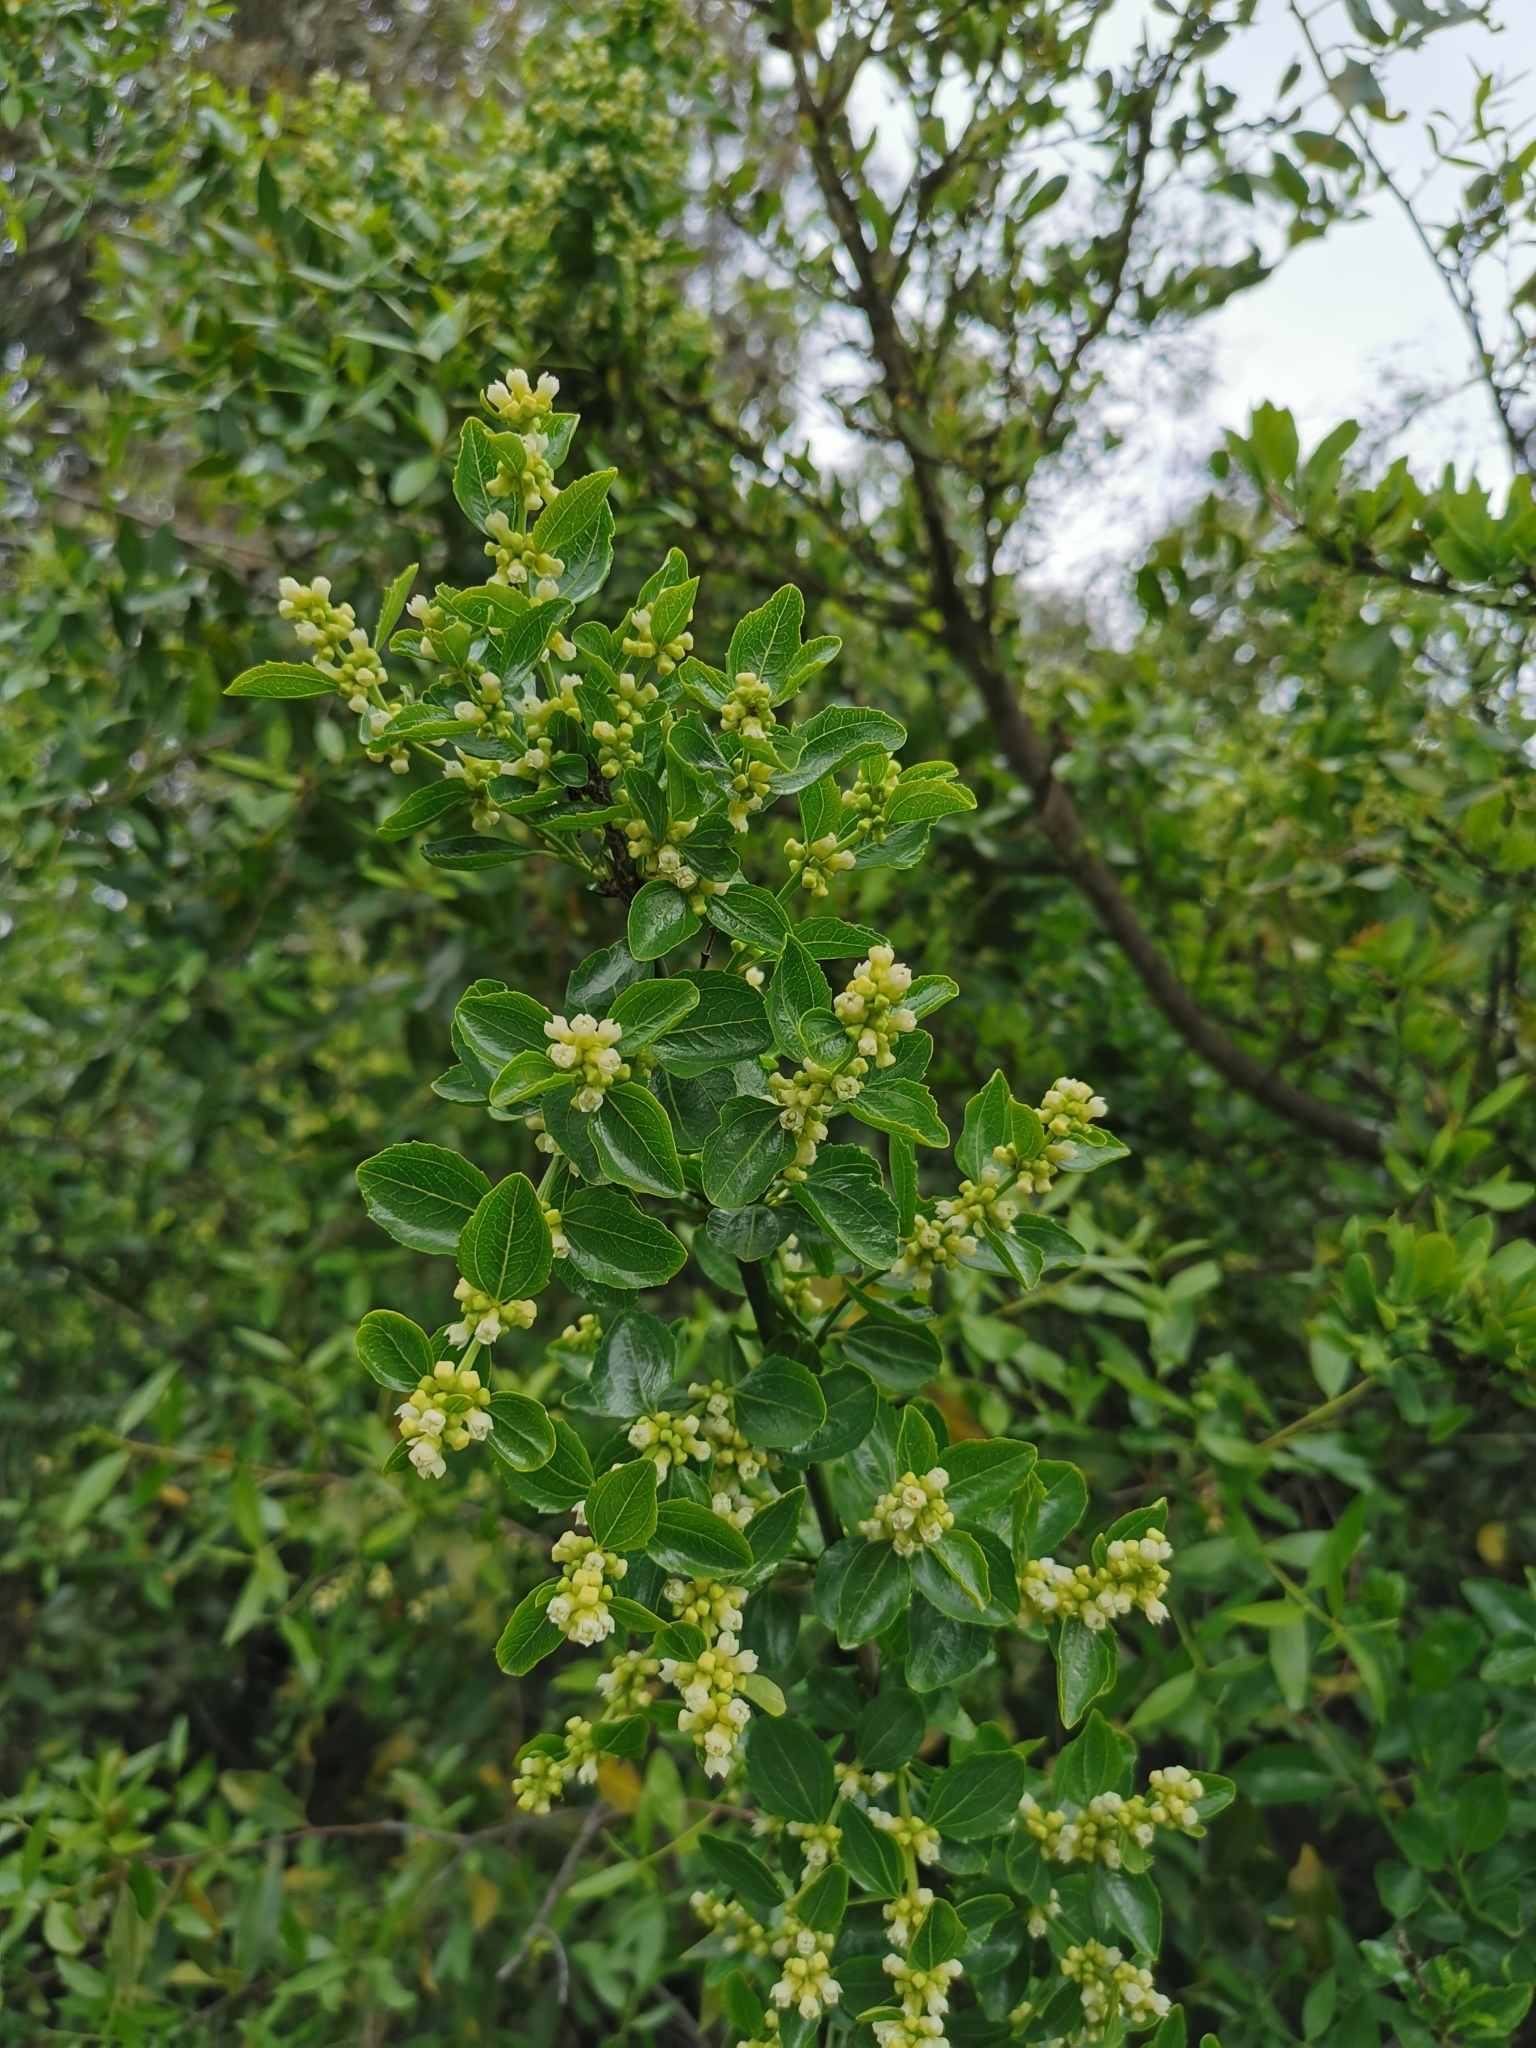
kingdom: Plantae
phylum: Tracheophyta
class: Magnoliopsida
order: Rosales
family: Rhamnaceae
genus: Retanilla
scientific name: Retanilla trinervia
